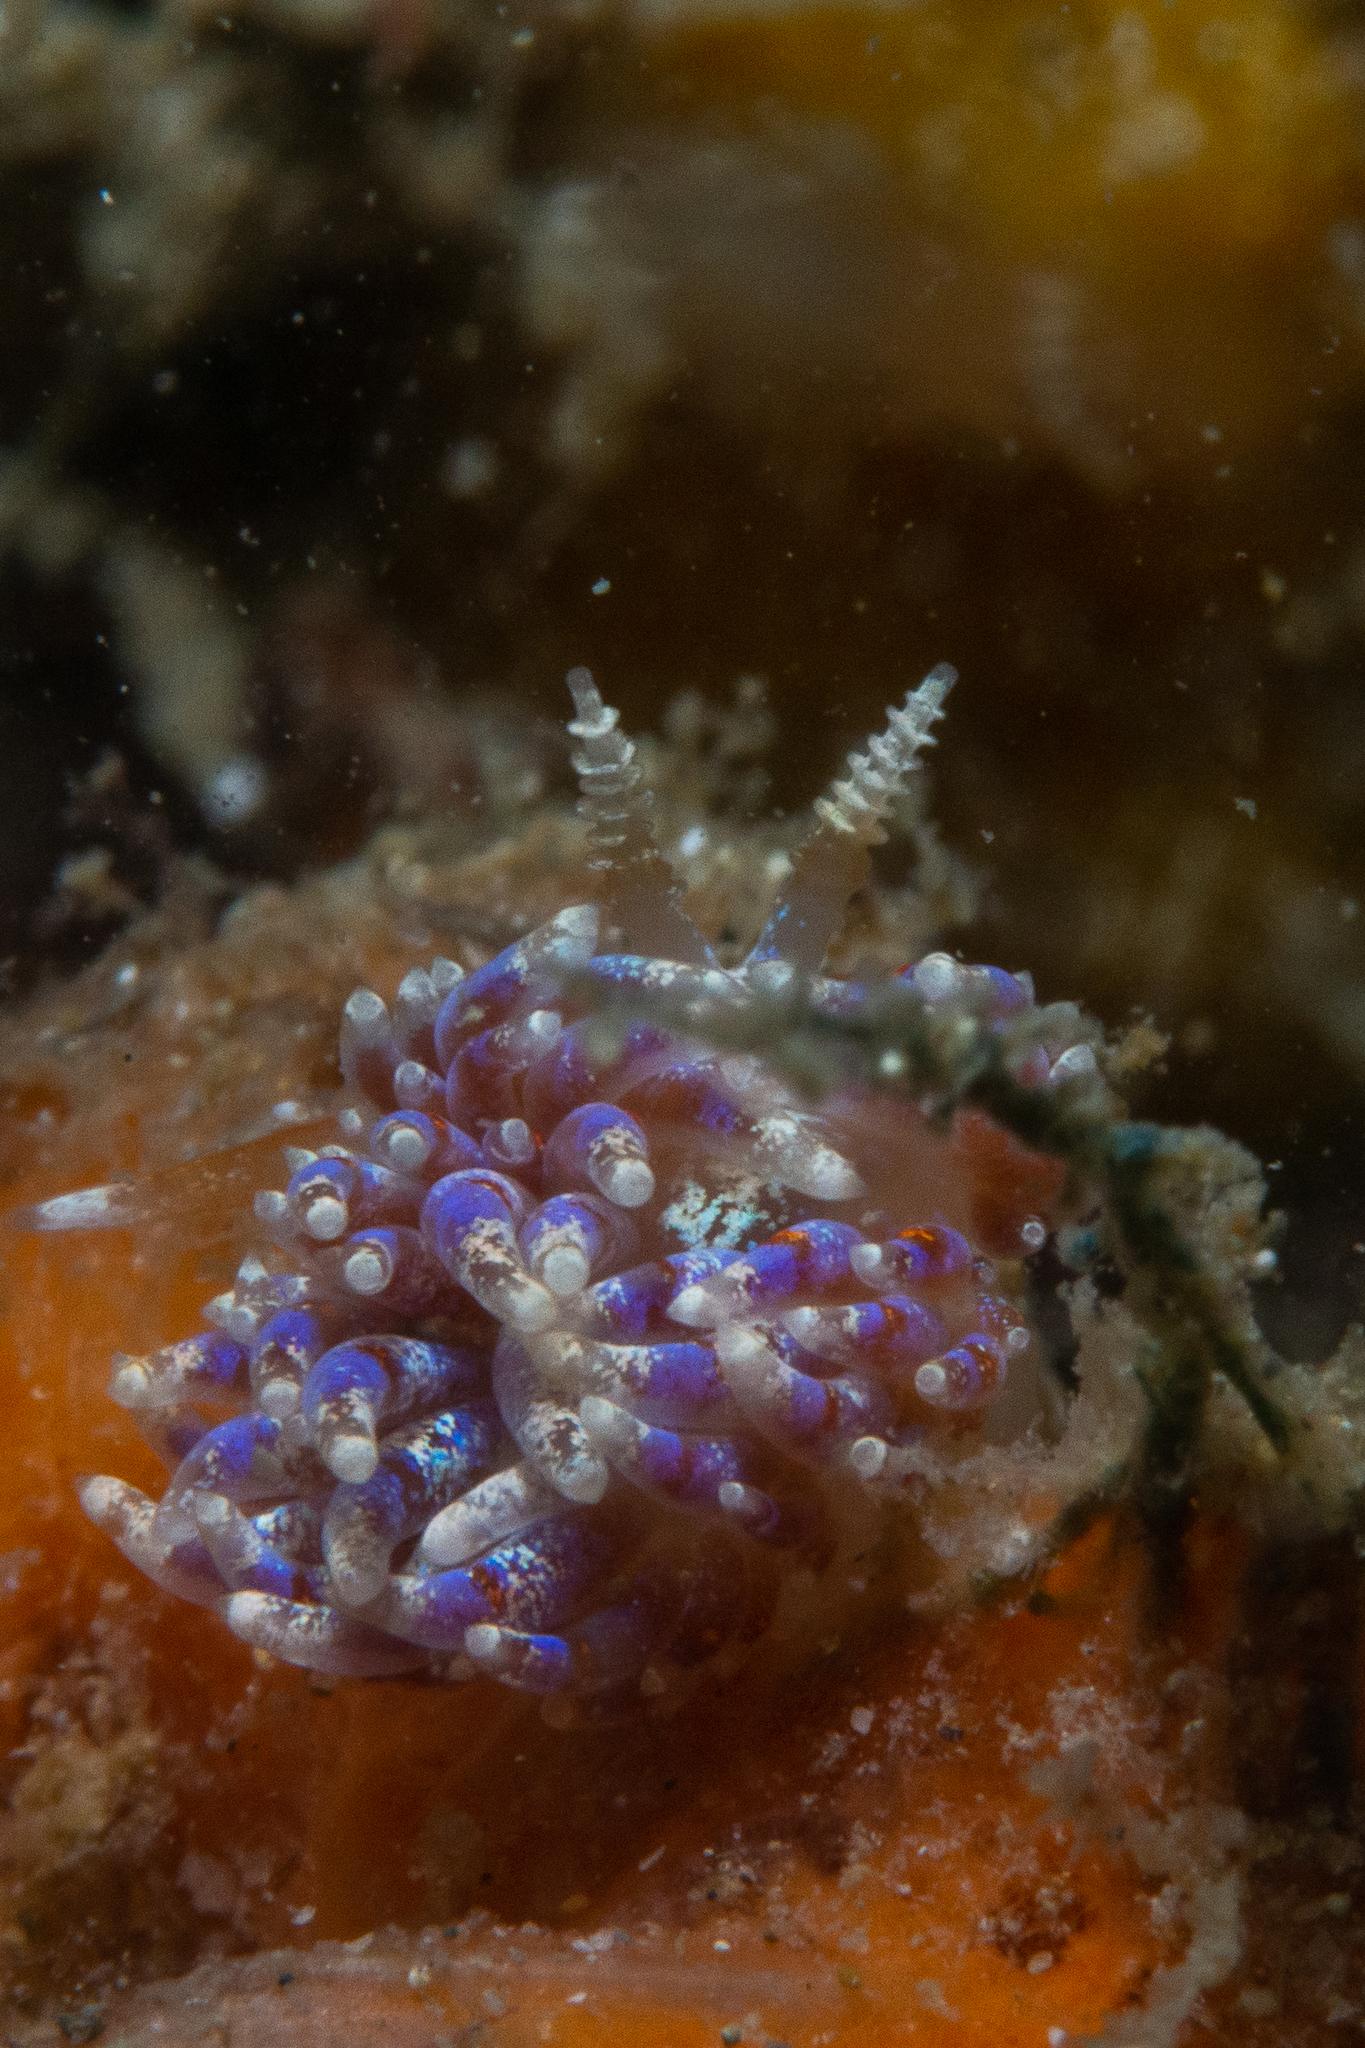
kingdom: Animalia
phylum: Mollusca
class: Gastropoda
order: Nudibranchia
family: Facelinidae
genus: Austraeolis
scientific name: Austraeolis ornata
